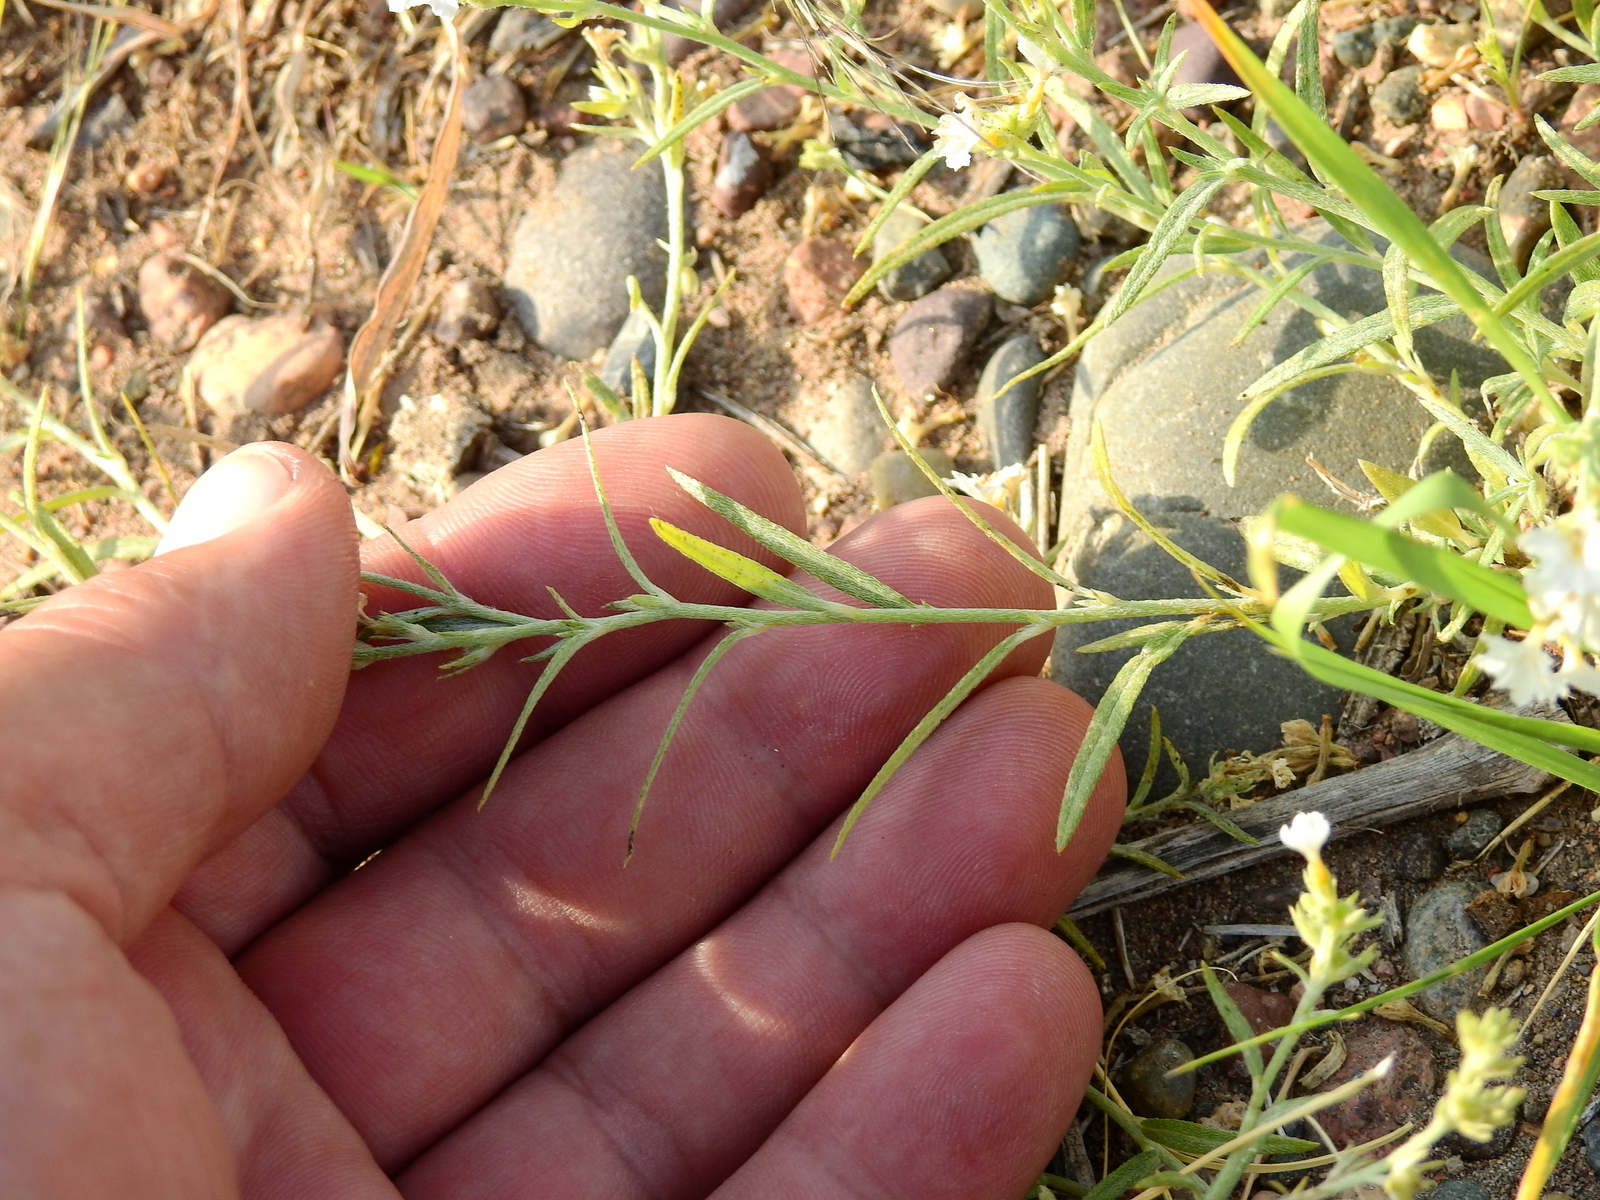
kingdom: Plantae
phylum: Tracheophyta
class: Magnoliopsida
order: Boraginales
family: Heliotropiaceae
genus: Euploca
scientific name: Euploca mendocina
